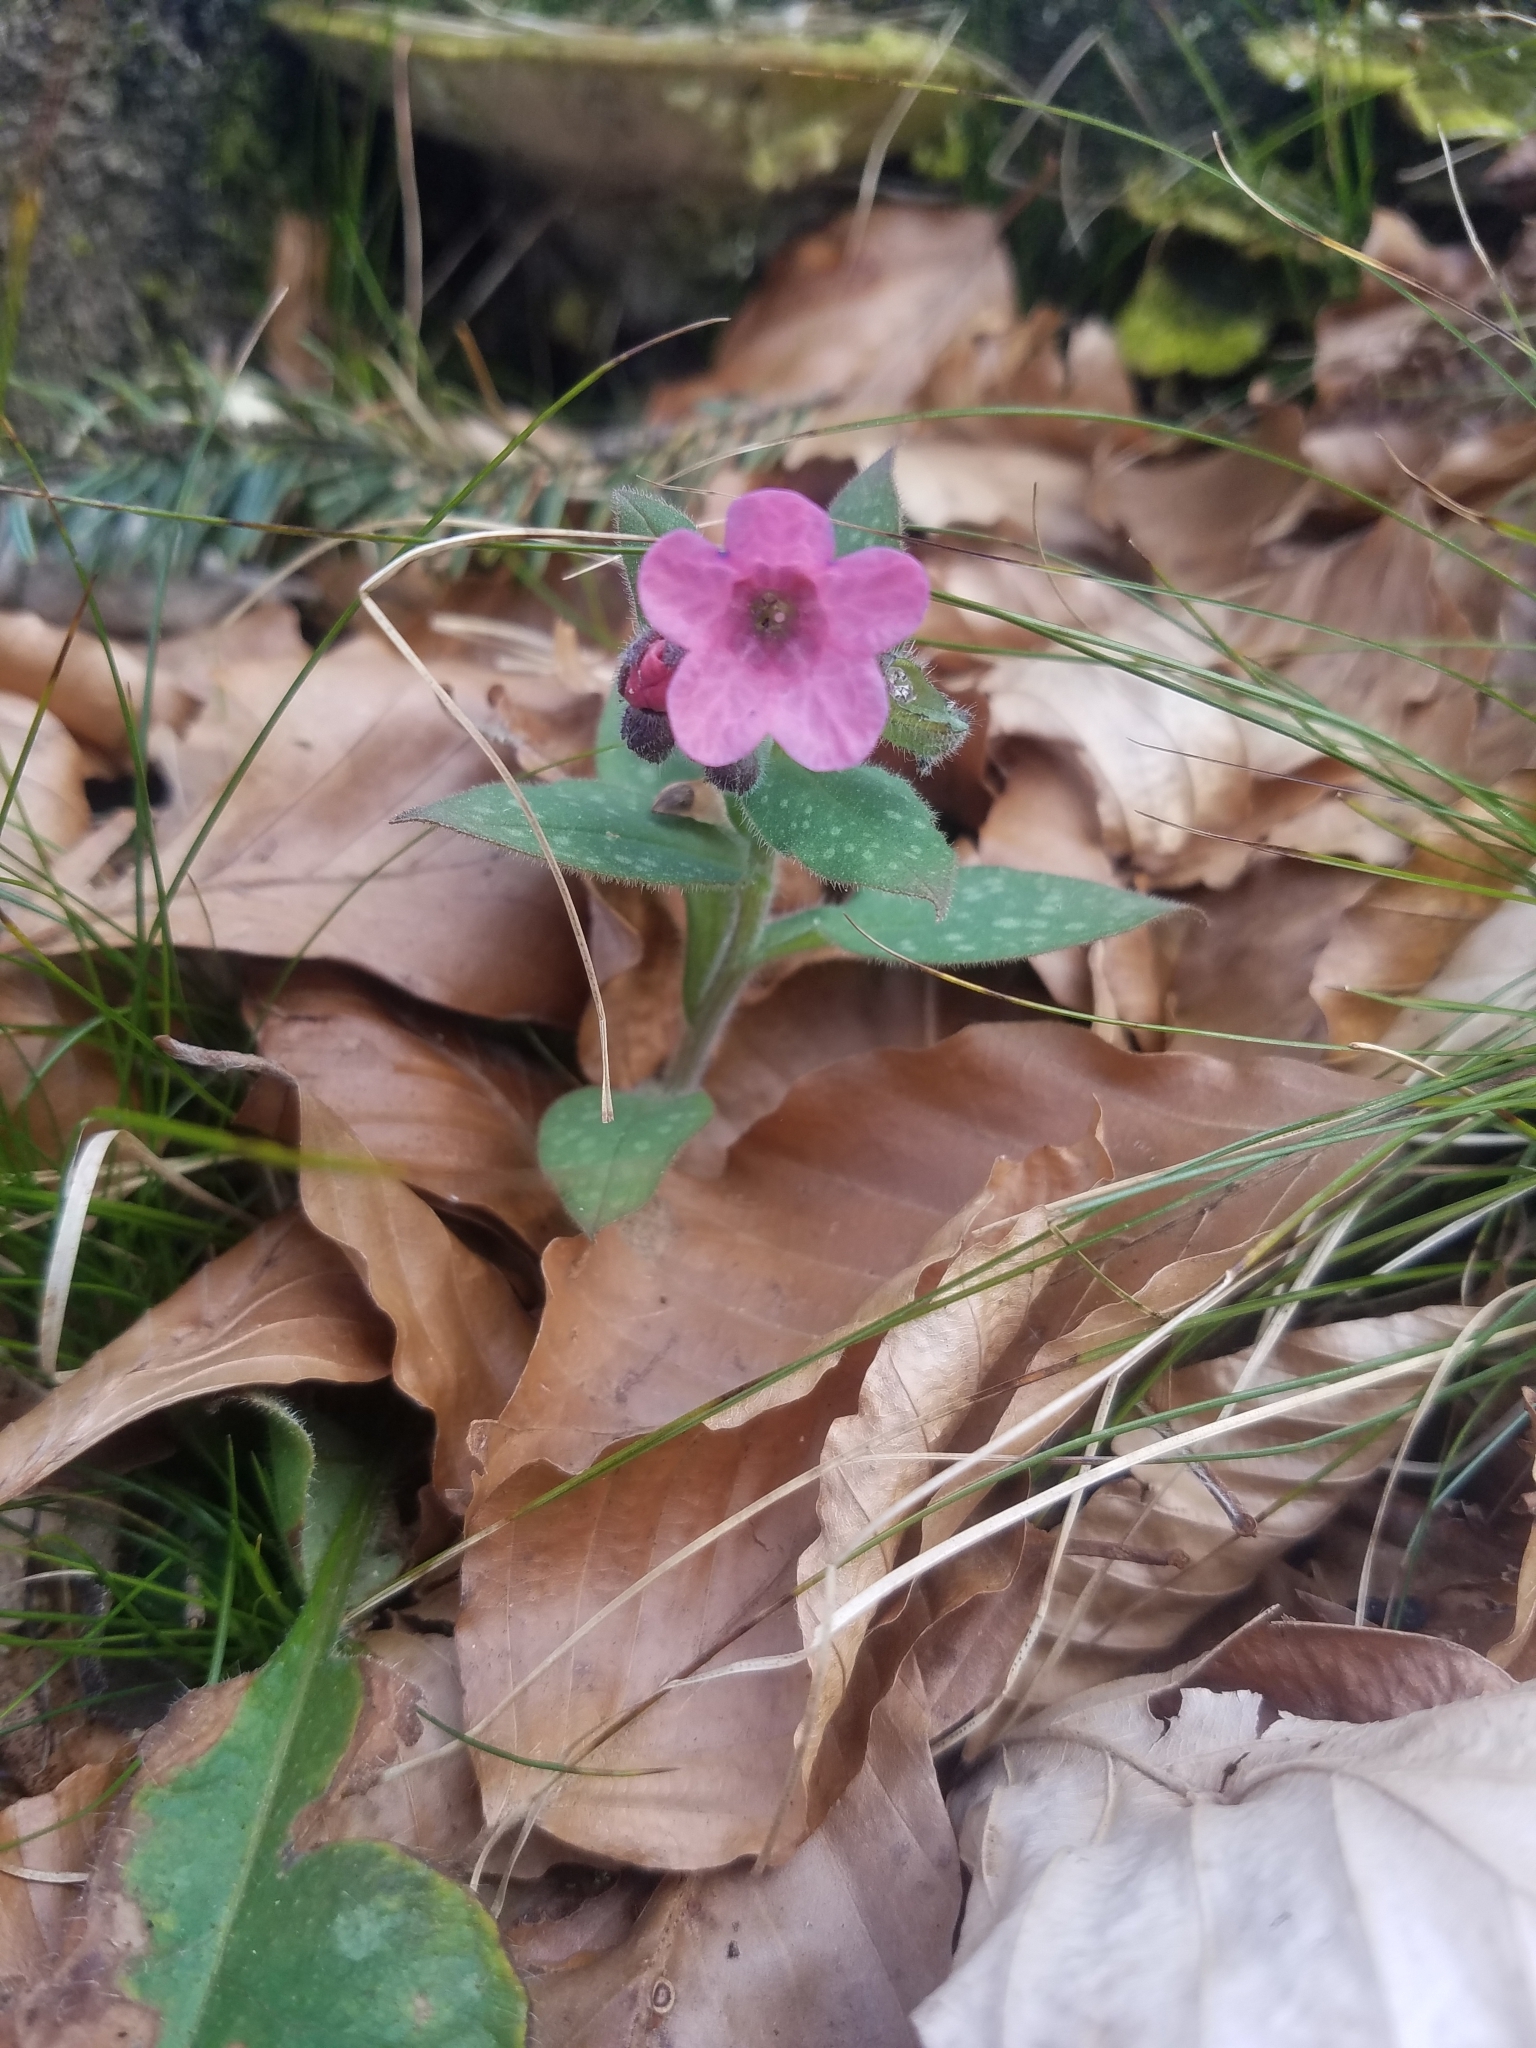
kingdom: Plantae
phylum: Tracheophyta
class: Magnoliopsida
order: Boraginales
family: Boraginaceae
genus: Pulmonaria
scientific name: Pulmonaria officinalis
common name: Lungwort
